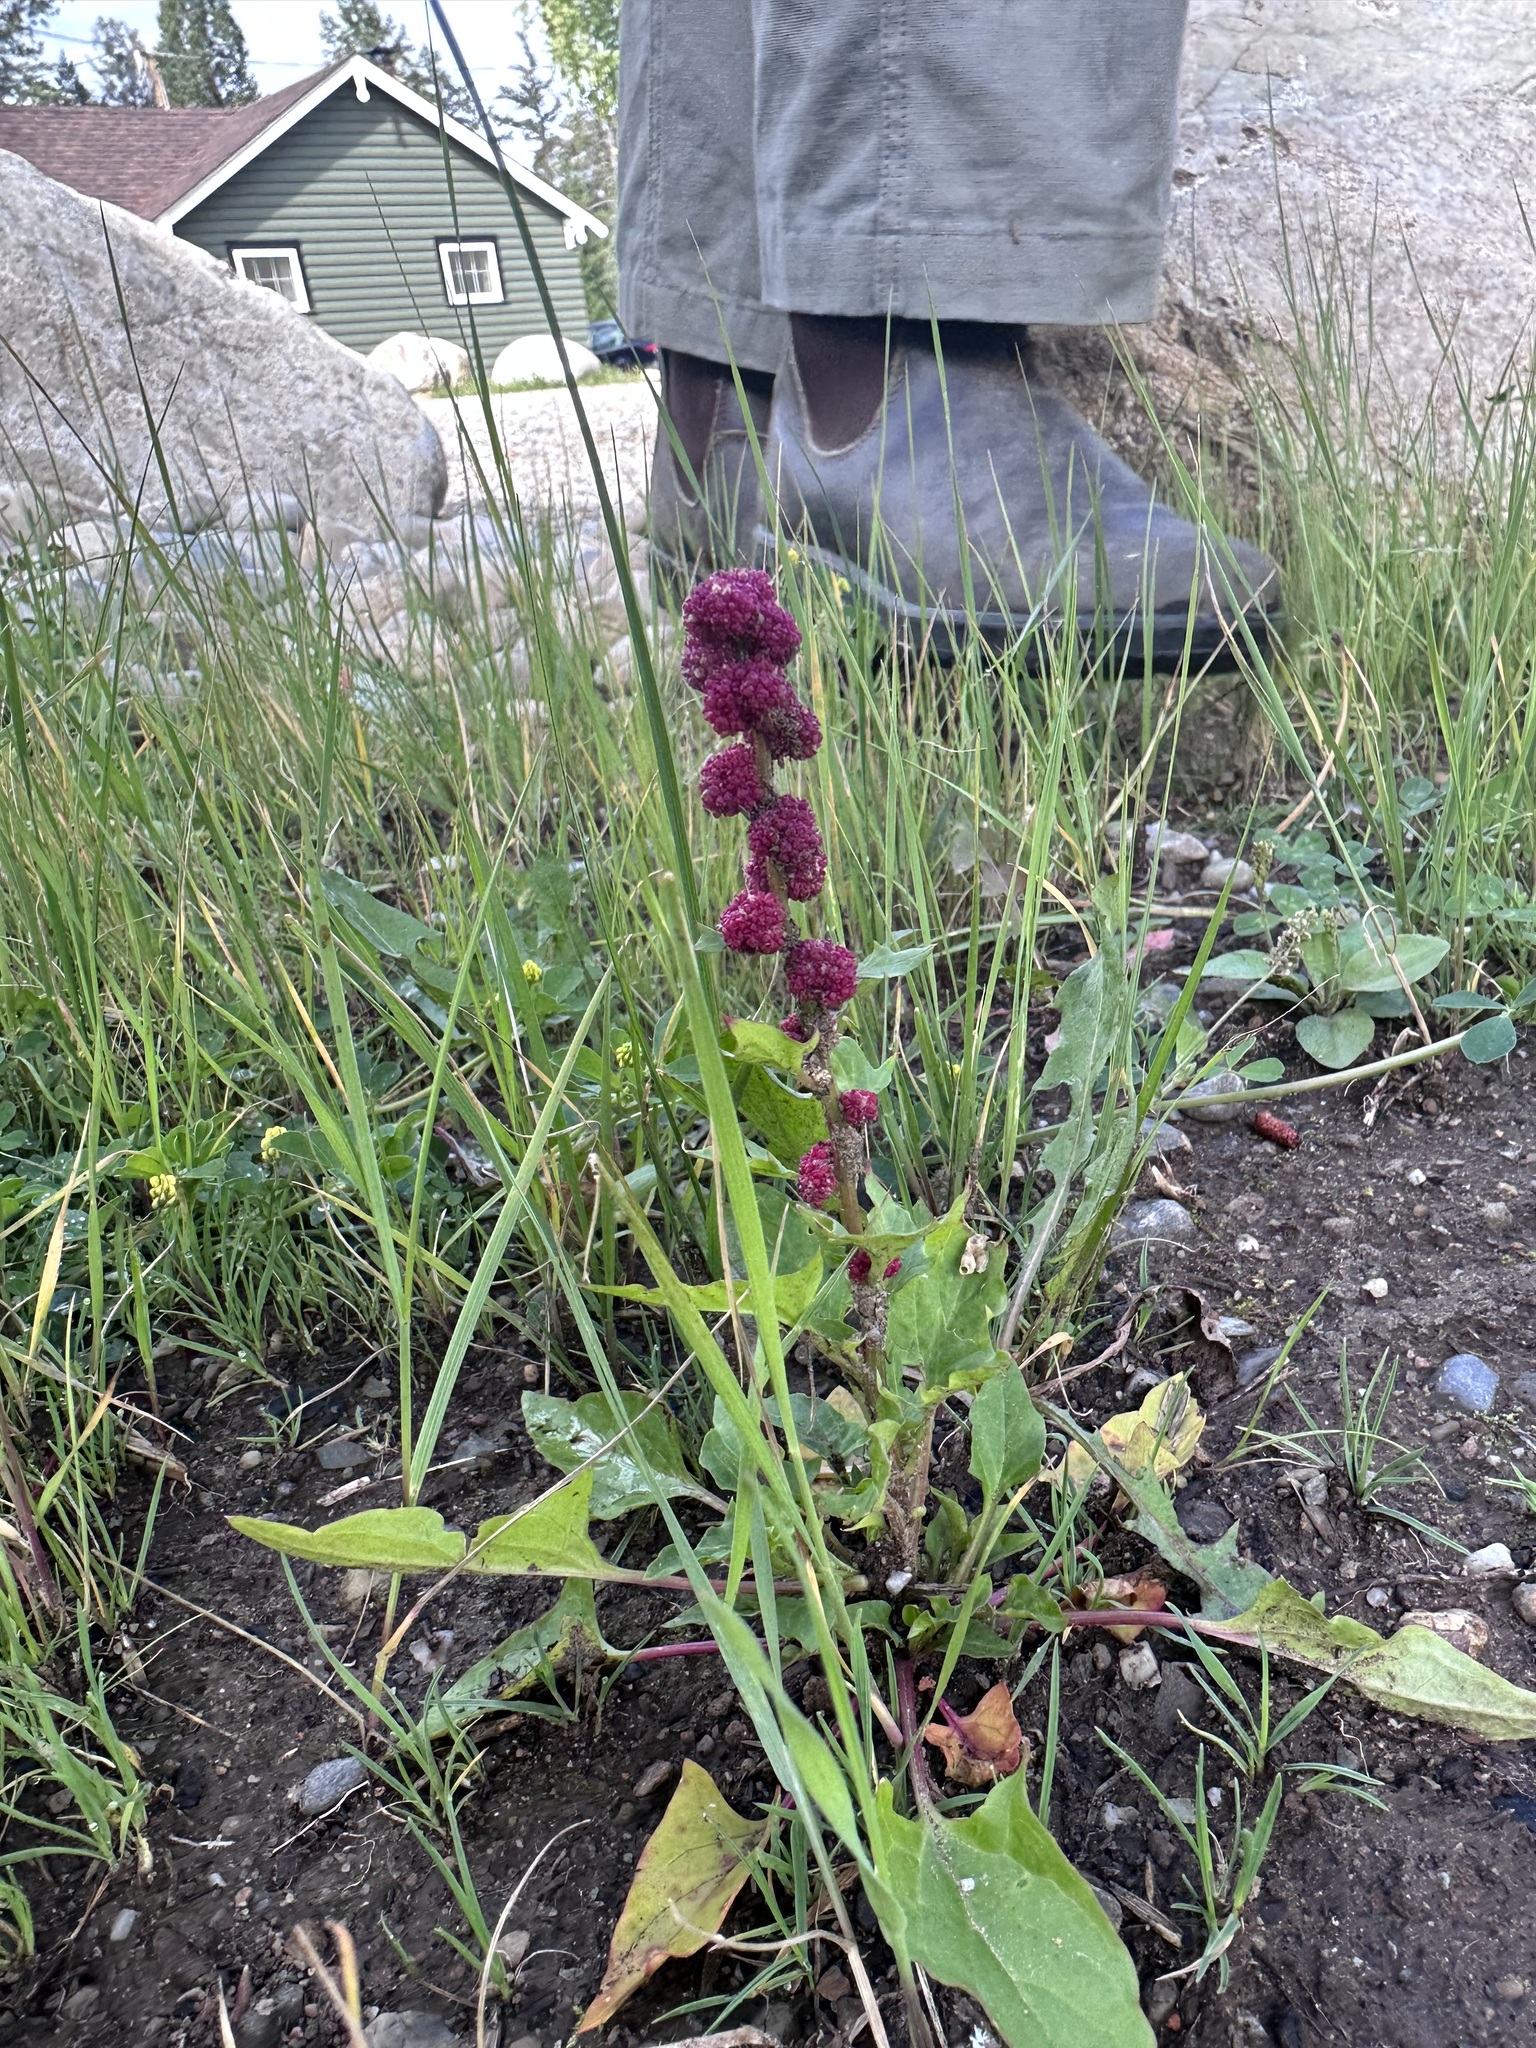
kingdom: Plantae
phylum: Tracheophyta
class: Magnoliopsida
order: Caryophyllales
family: Amaranthaceae
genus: Blitum
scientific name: Blitum capitatum
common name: Strawberry-blight
